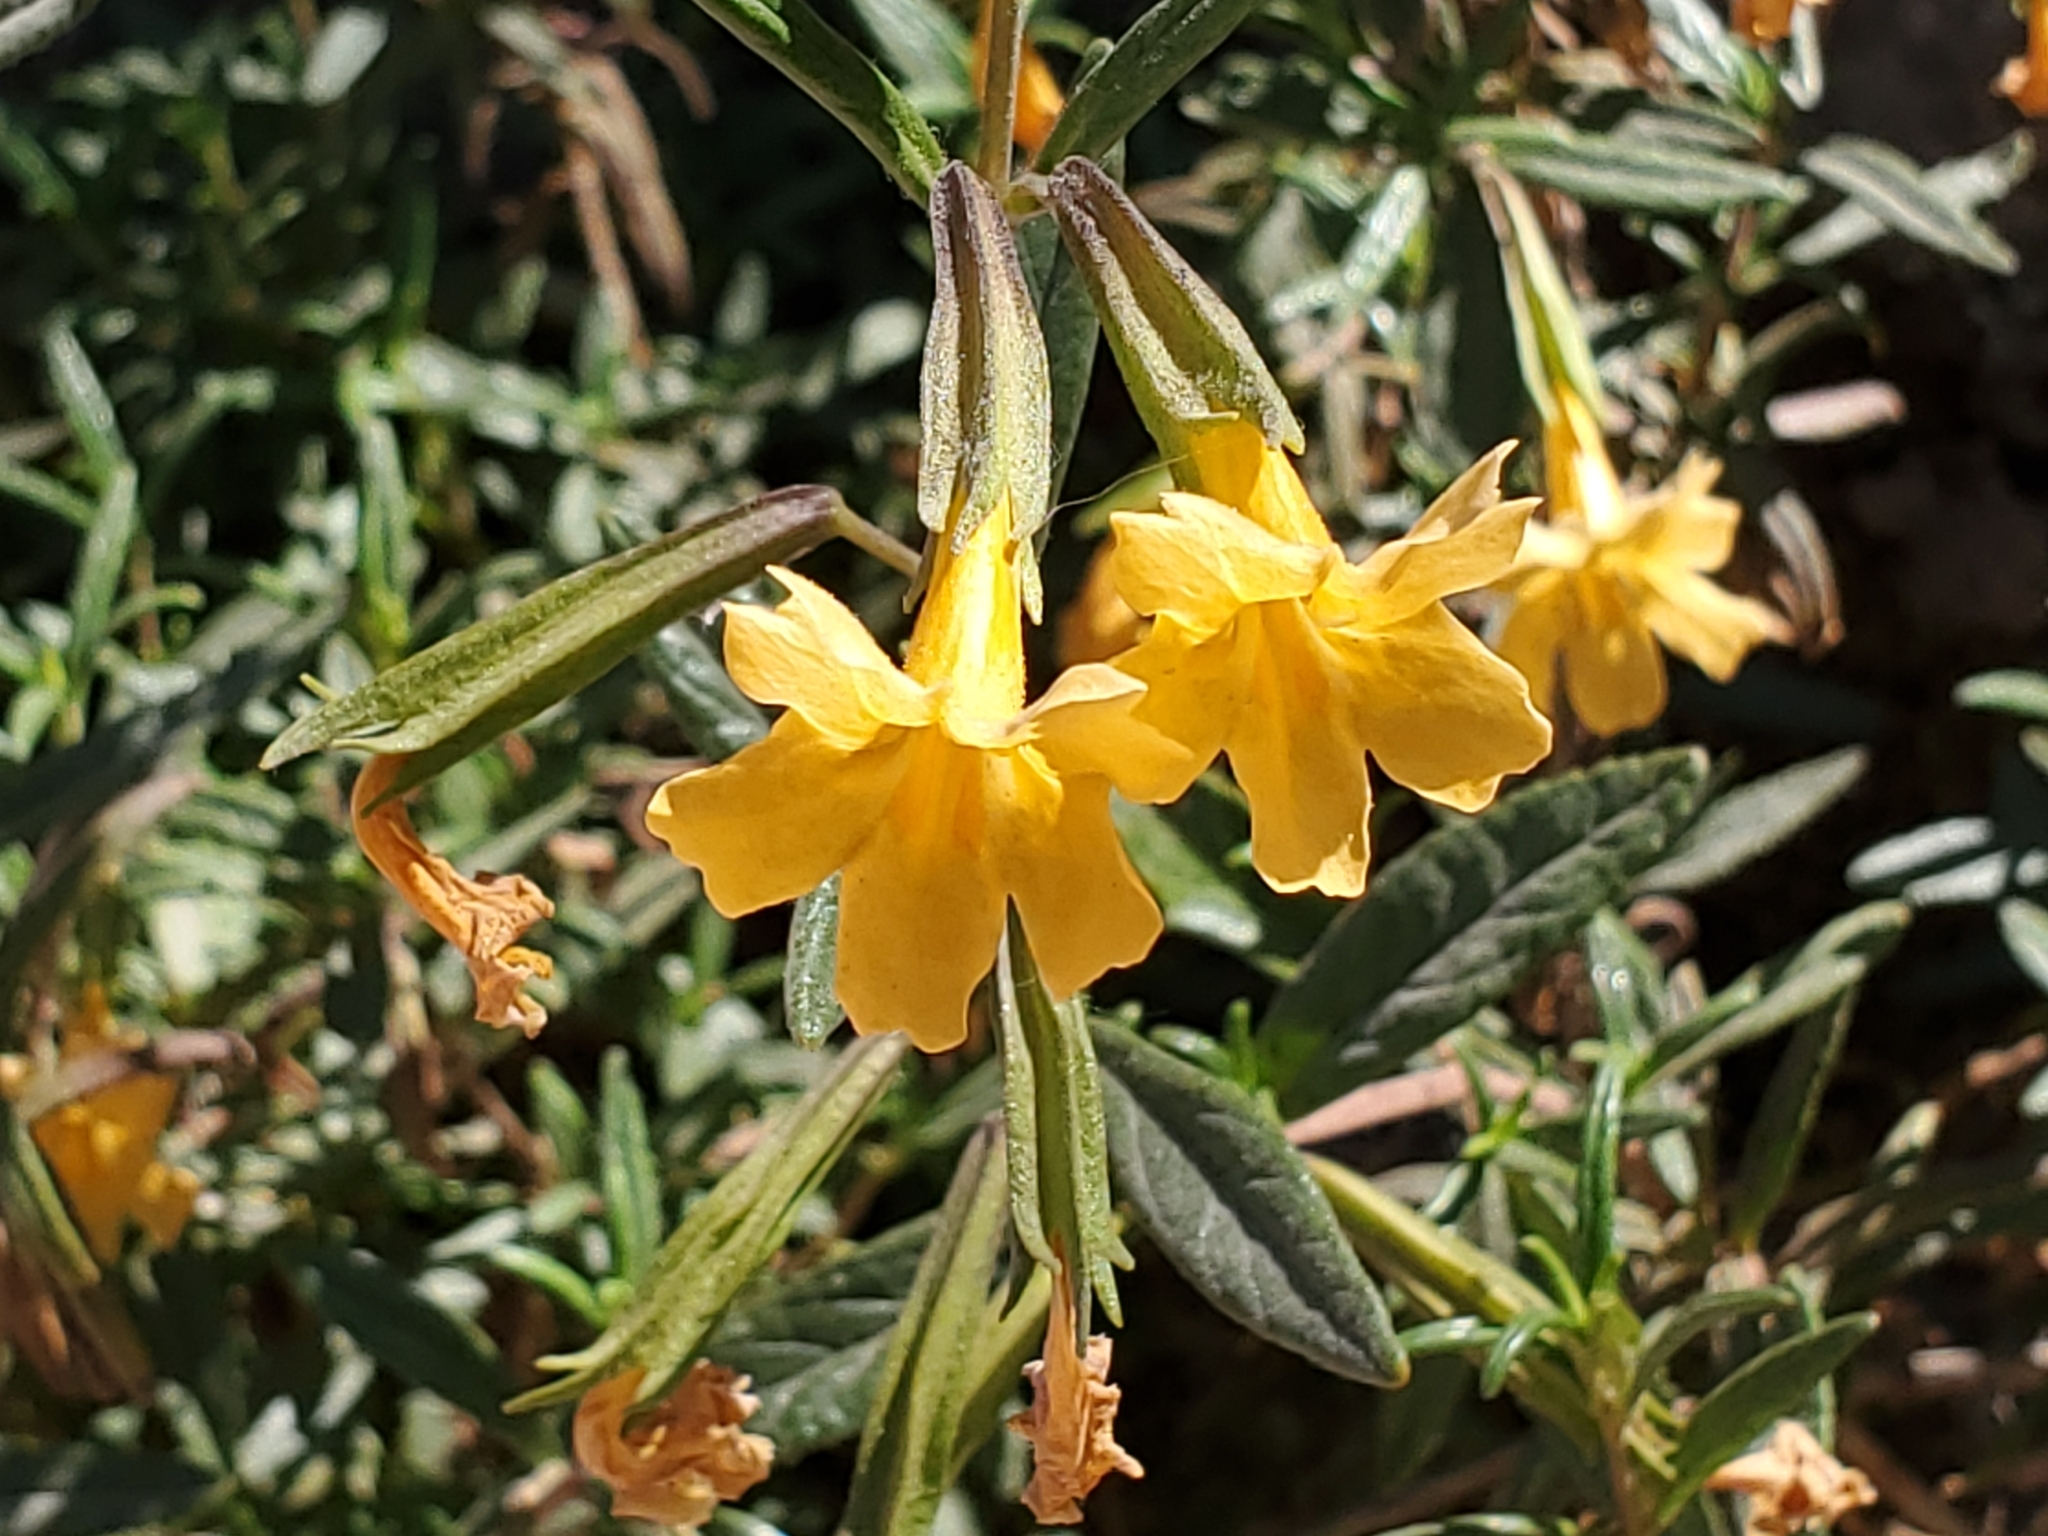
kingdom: Plantae
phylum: Tracheophyta
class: Magnoliopsida
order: Lamiales
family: Phrymaceae
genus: Diplacus
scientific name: Diplacus aurantiacus
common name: Bush monkey-flower
